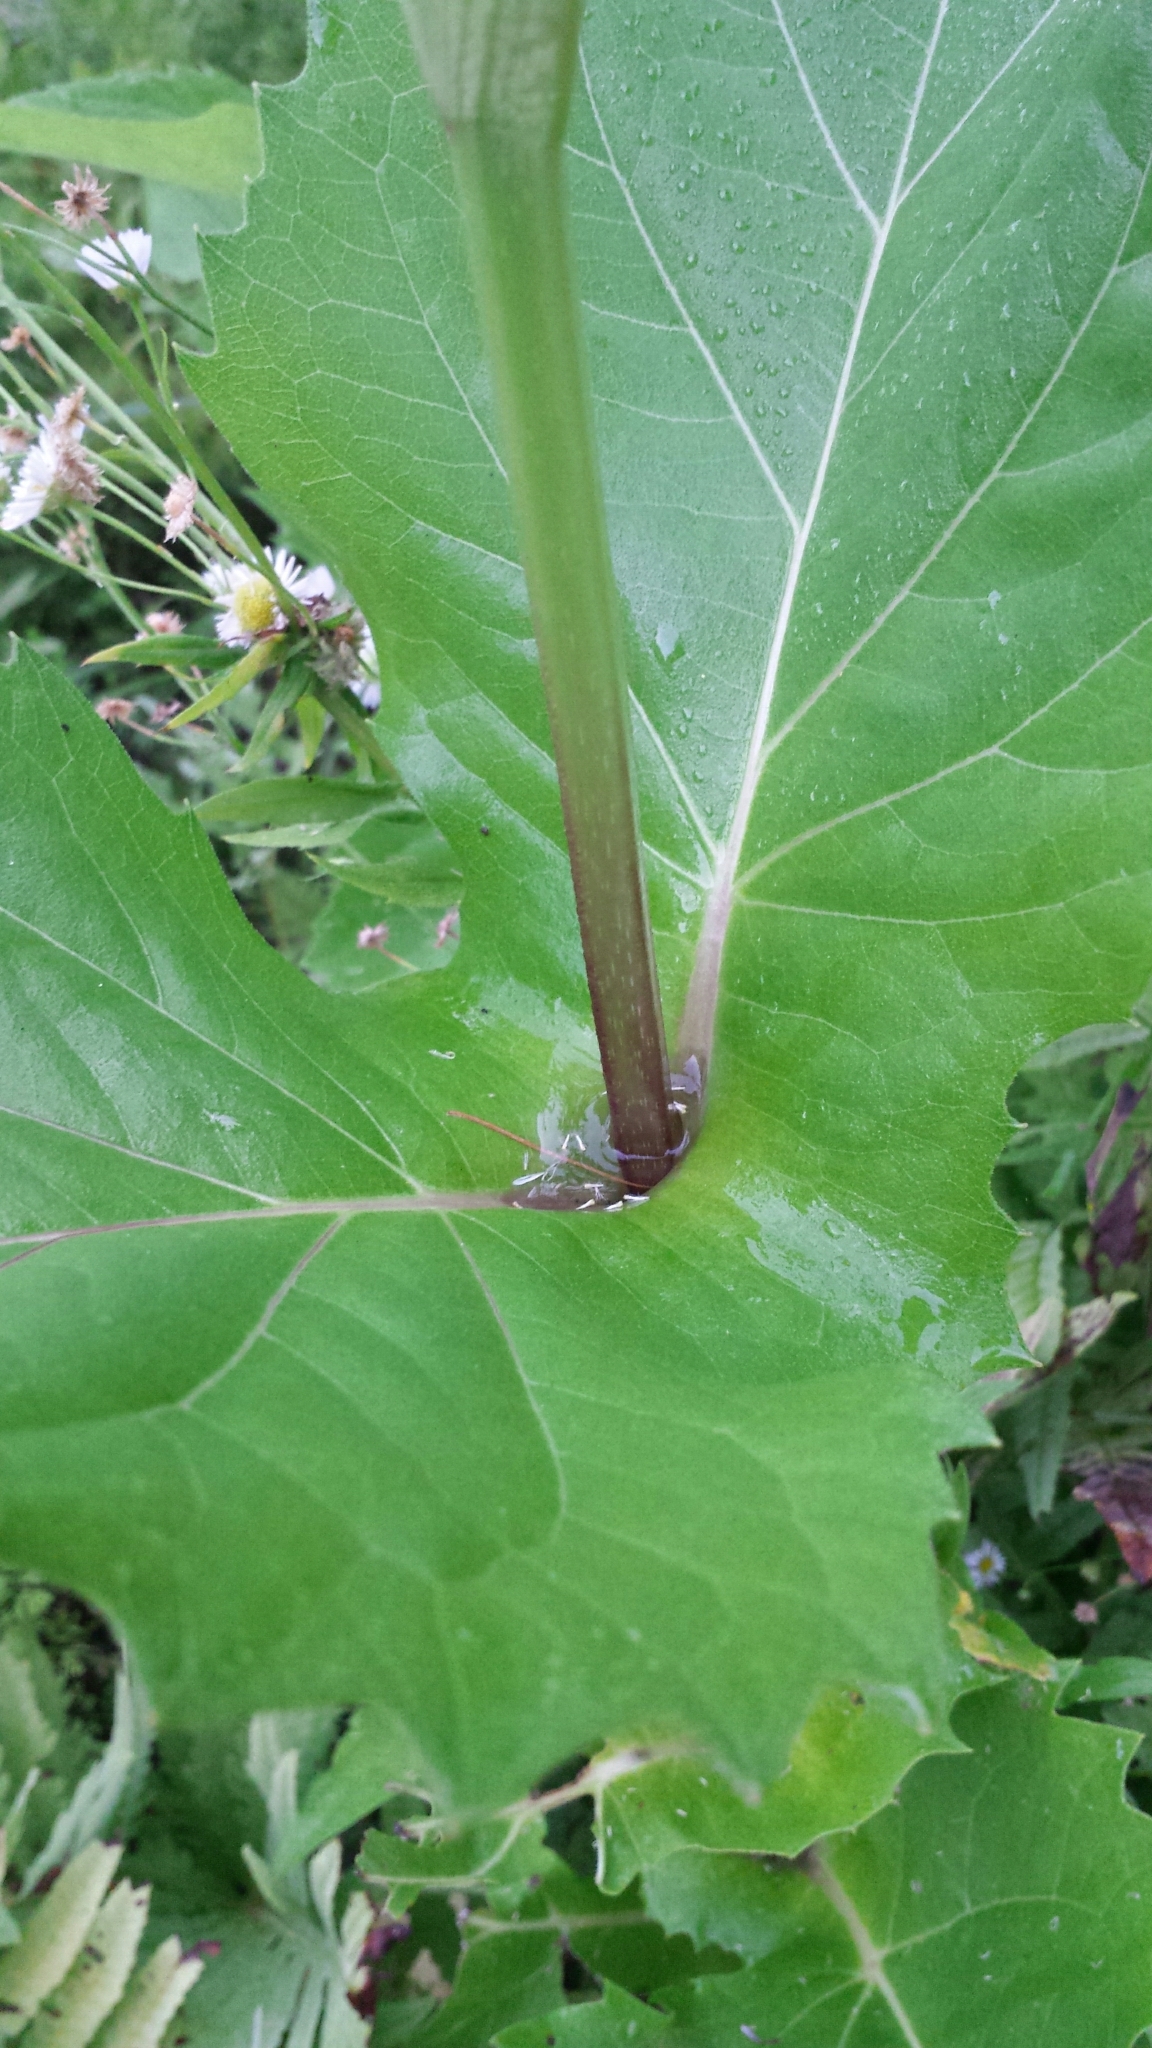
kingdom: Plantae
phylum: Tracheophyta
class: Magnoliopsida
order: Asterales
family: Asteraceae
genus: Silphium
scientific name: Silphium perfoliatum
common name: Cup-plant
